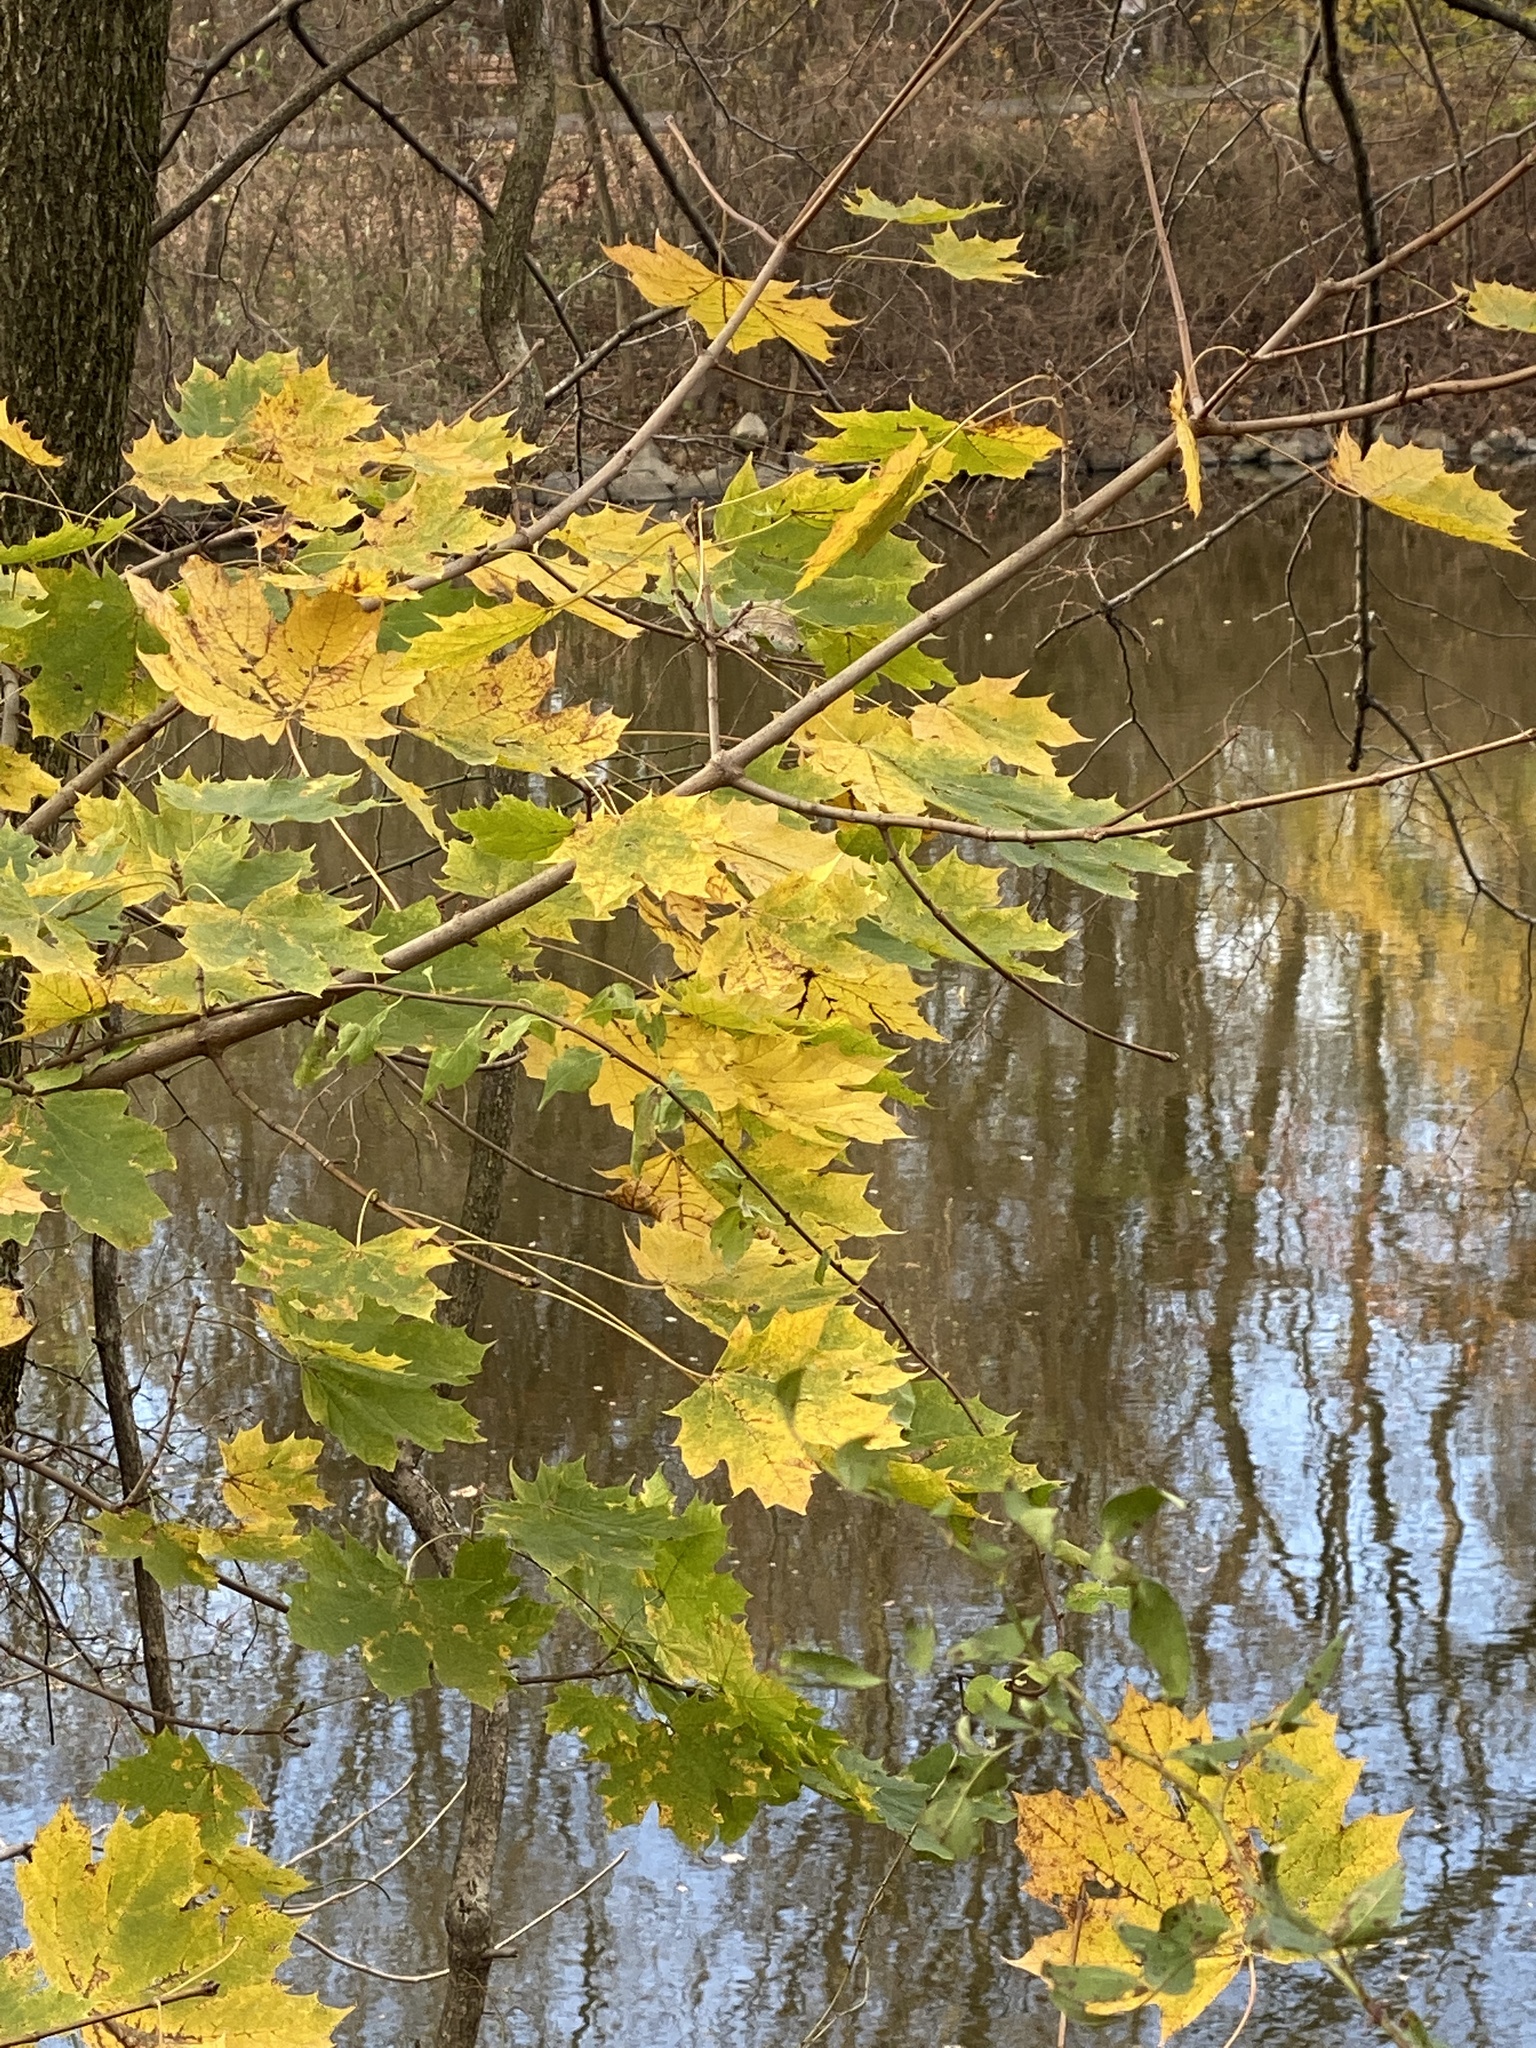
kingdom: Plantae
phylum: Tracheophyta
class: Magnoliopsida
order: Sapindales
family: Sapindaceae
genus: Acer
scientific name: Acer platanoides
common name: Norway maple
